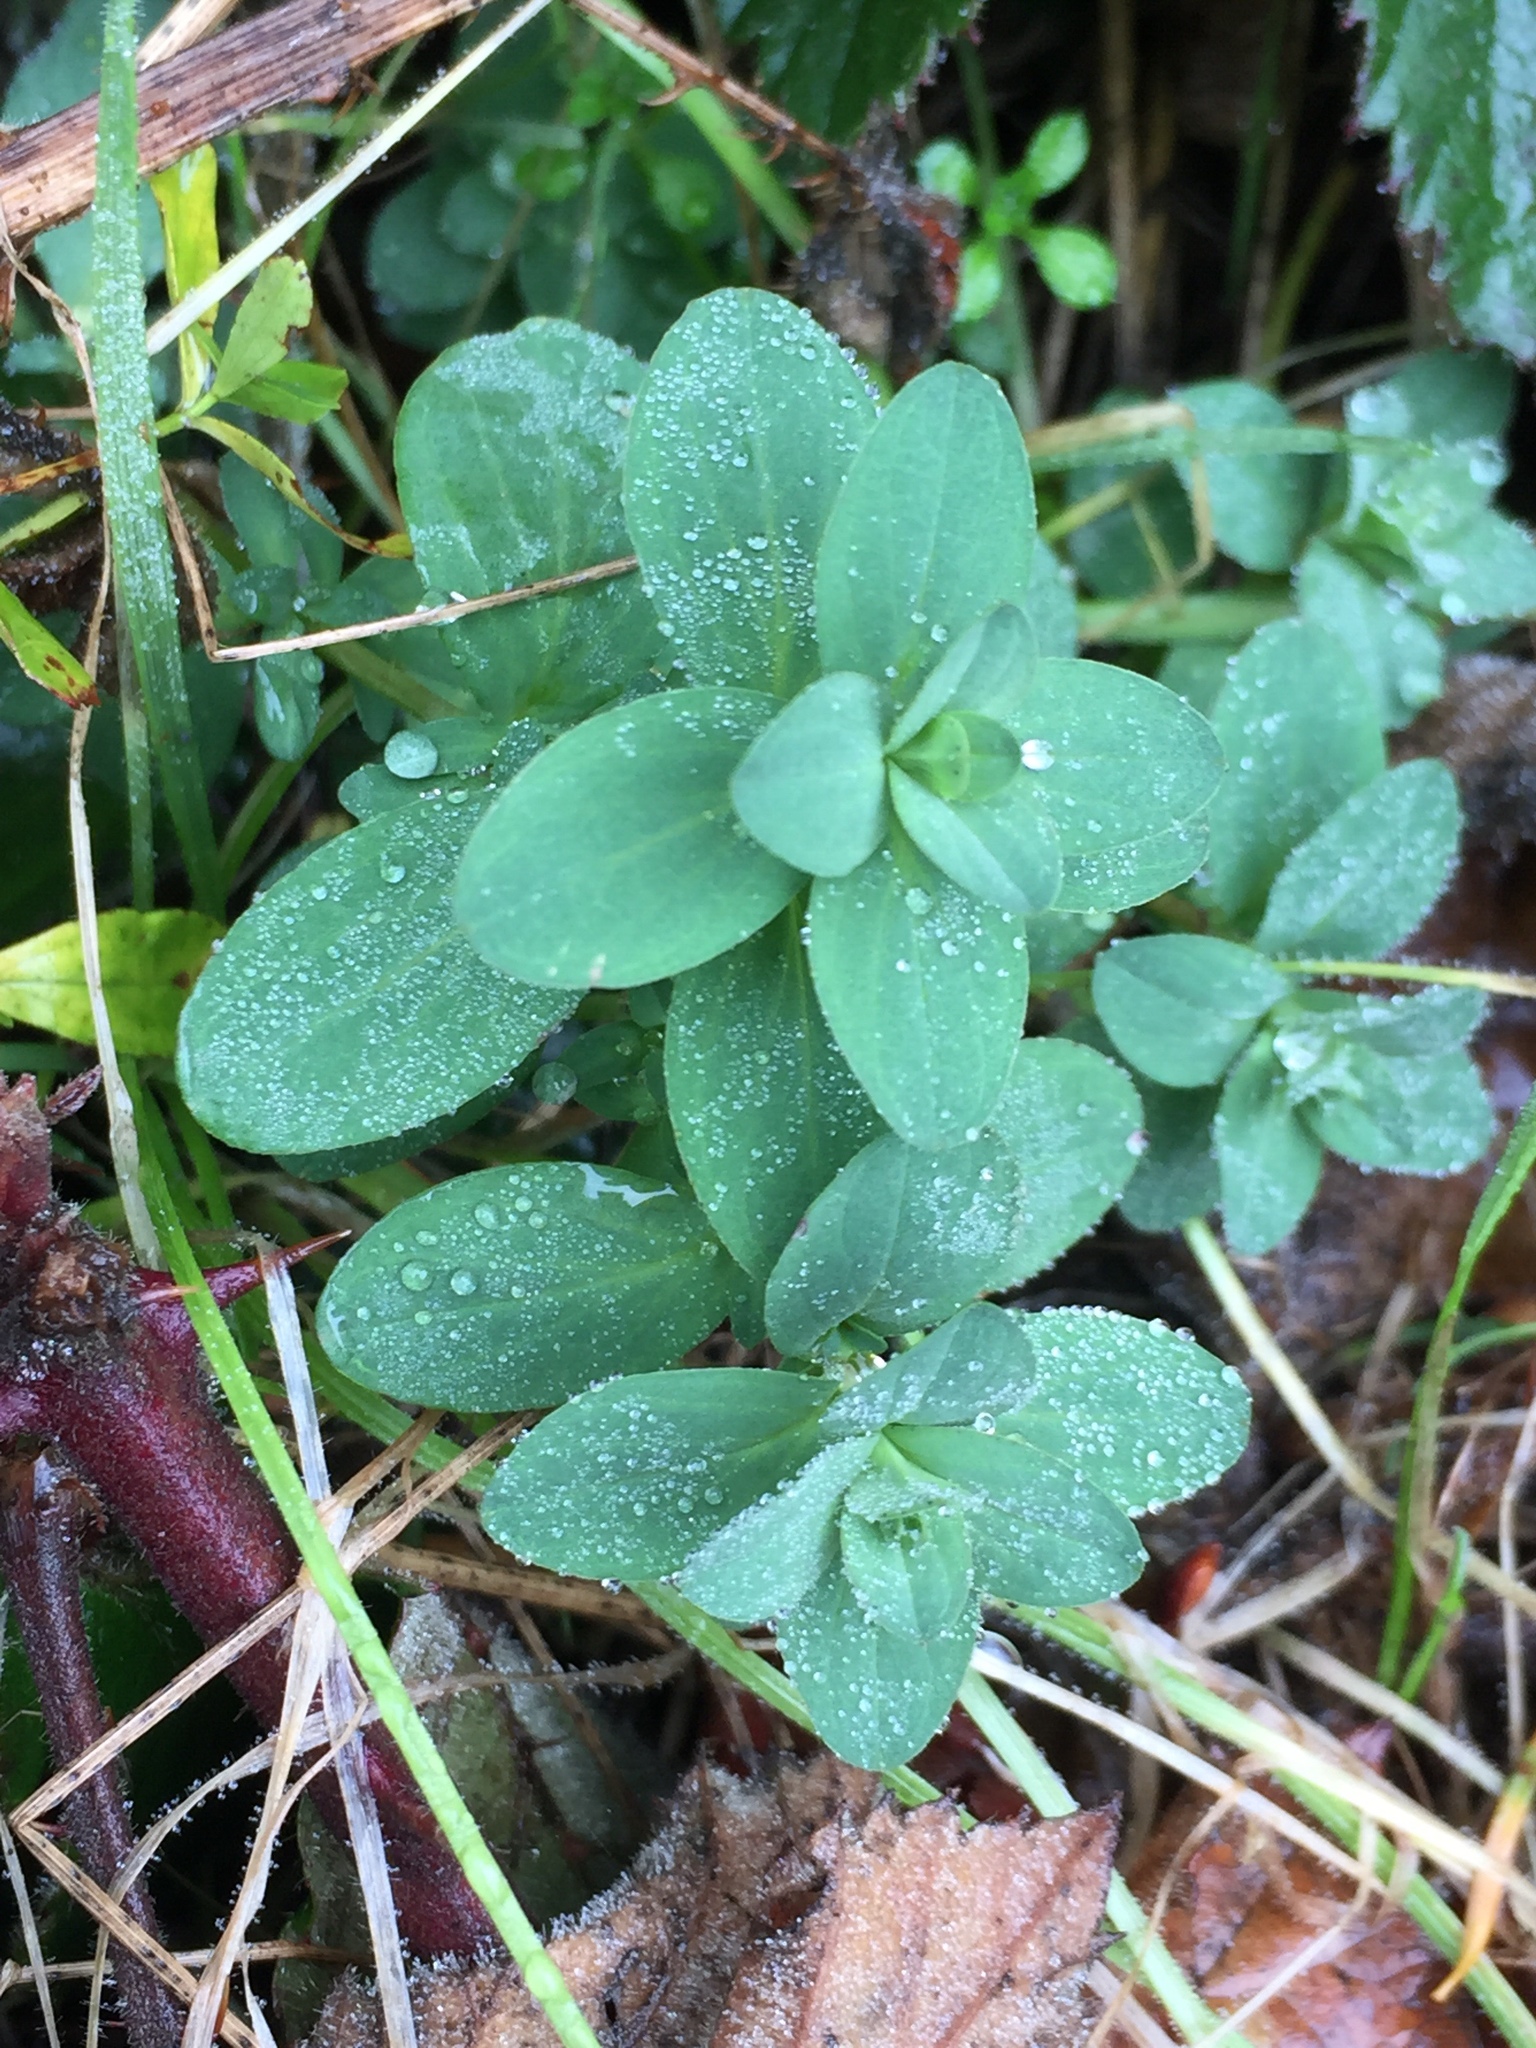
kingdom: Plantae
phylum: Tracheophyta
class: Magnoliopsida
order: Malpighiales
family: Hypericaceae
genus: Hypericum
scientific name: Hypericum perforatum
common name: Common st. johnswort
